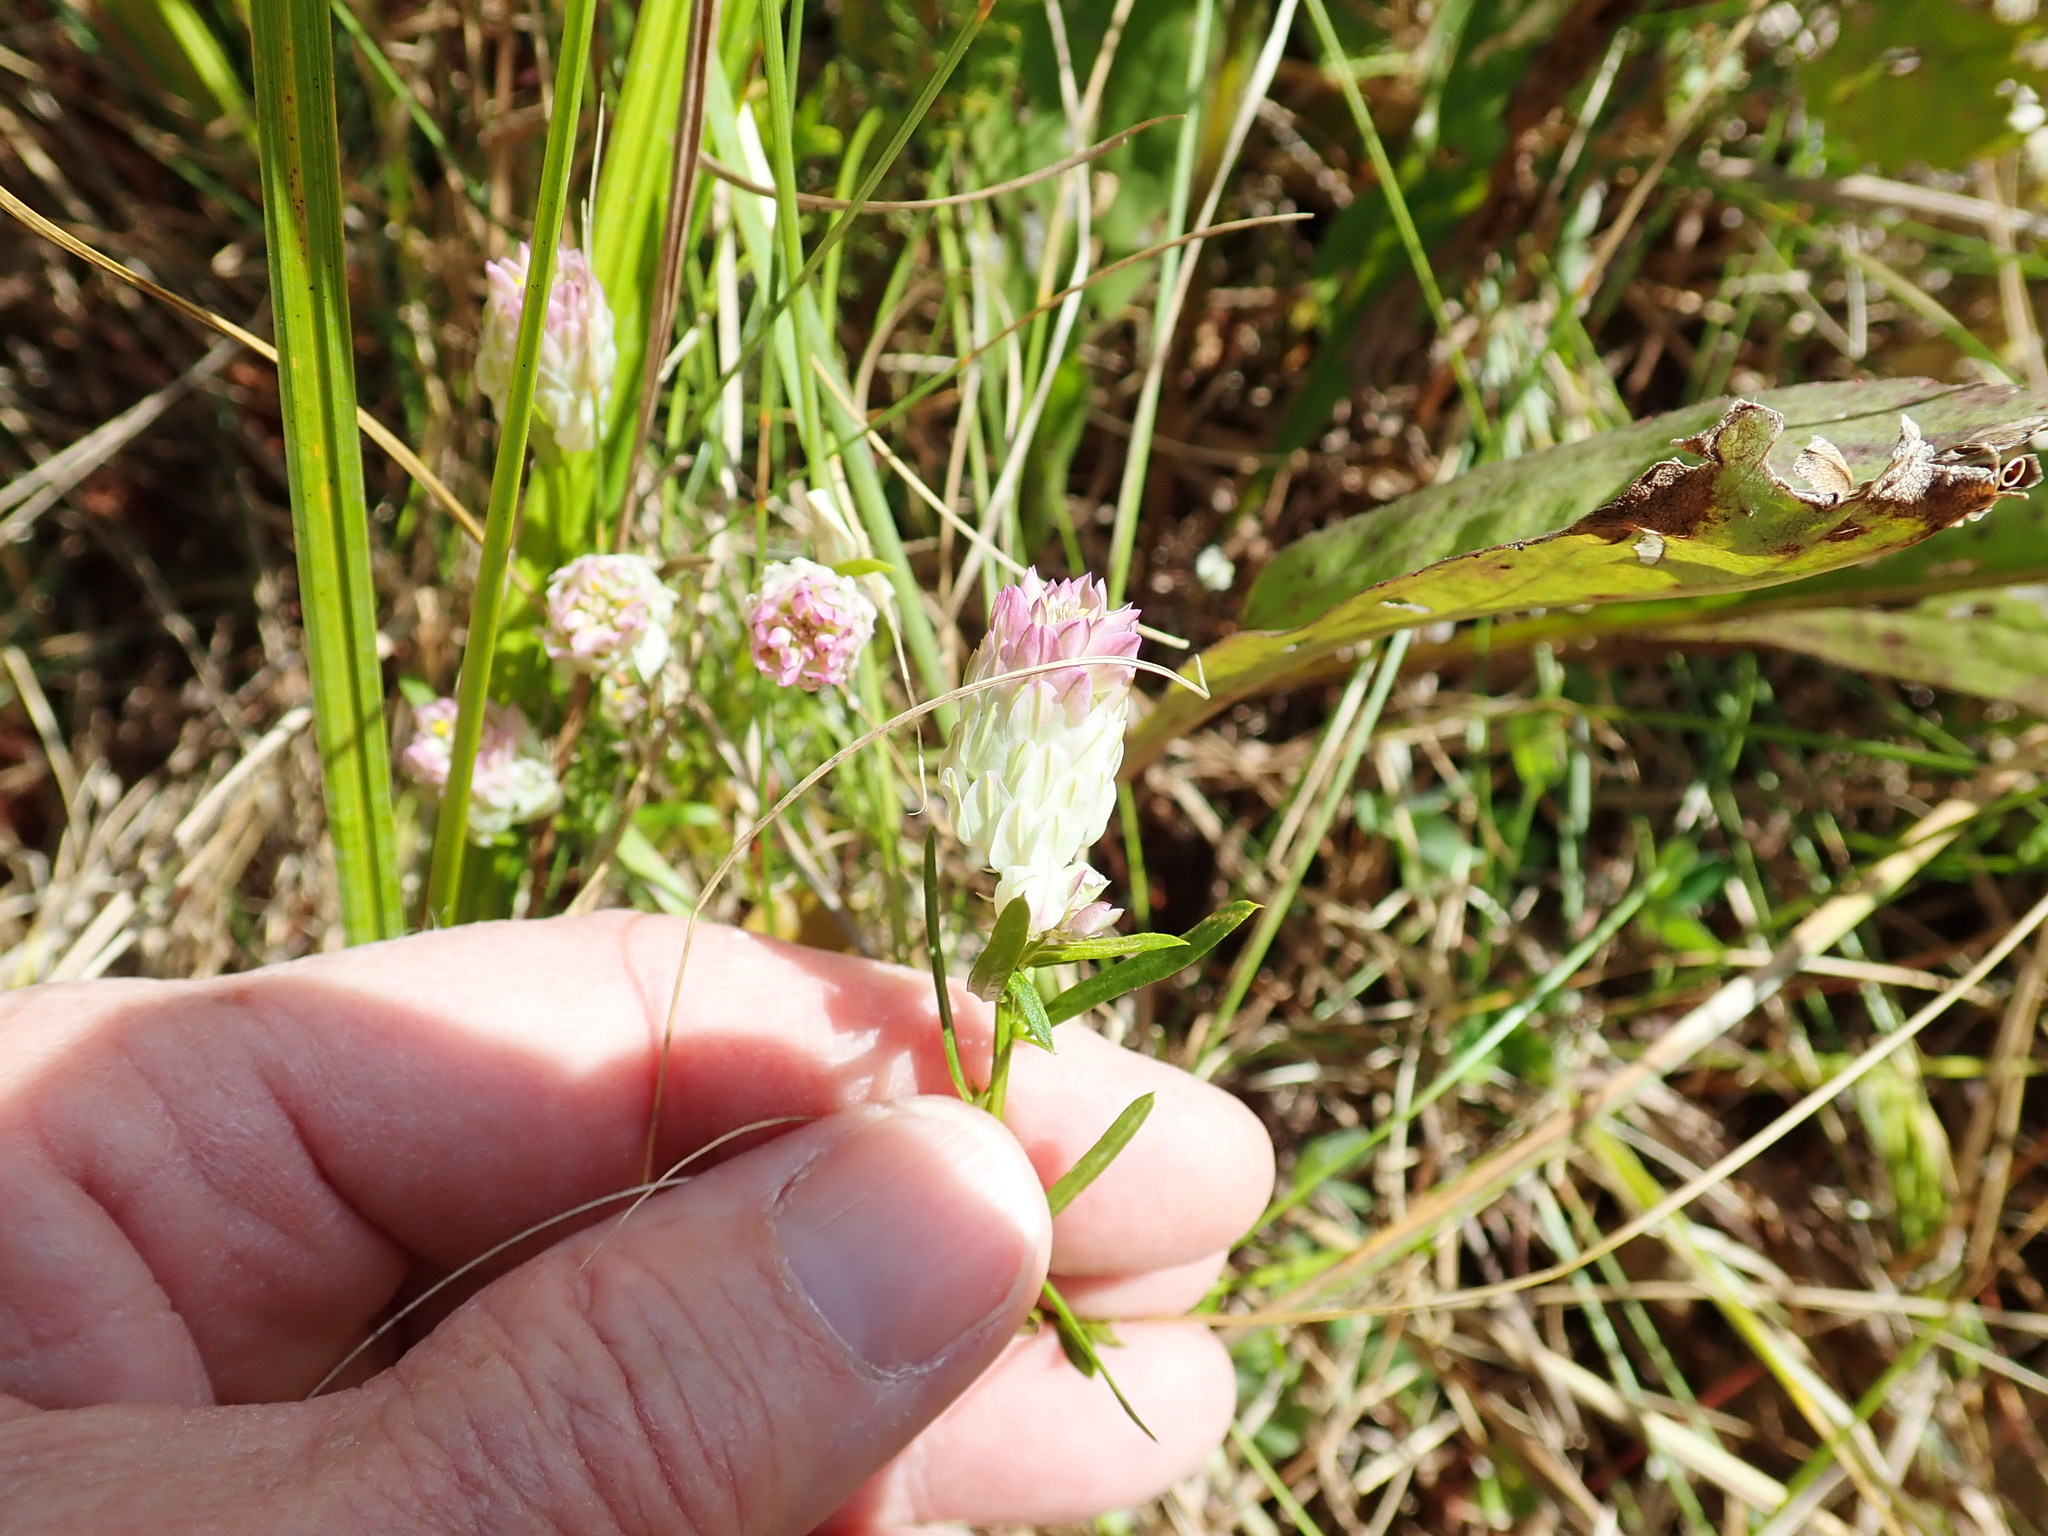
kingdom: Plantae
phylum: Tracheophyta
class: Magnoliopsida
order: Fabales
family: Polygalaceae
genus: Polygala
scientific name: Polygala sanguinea
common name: Blood milkwort
